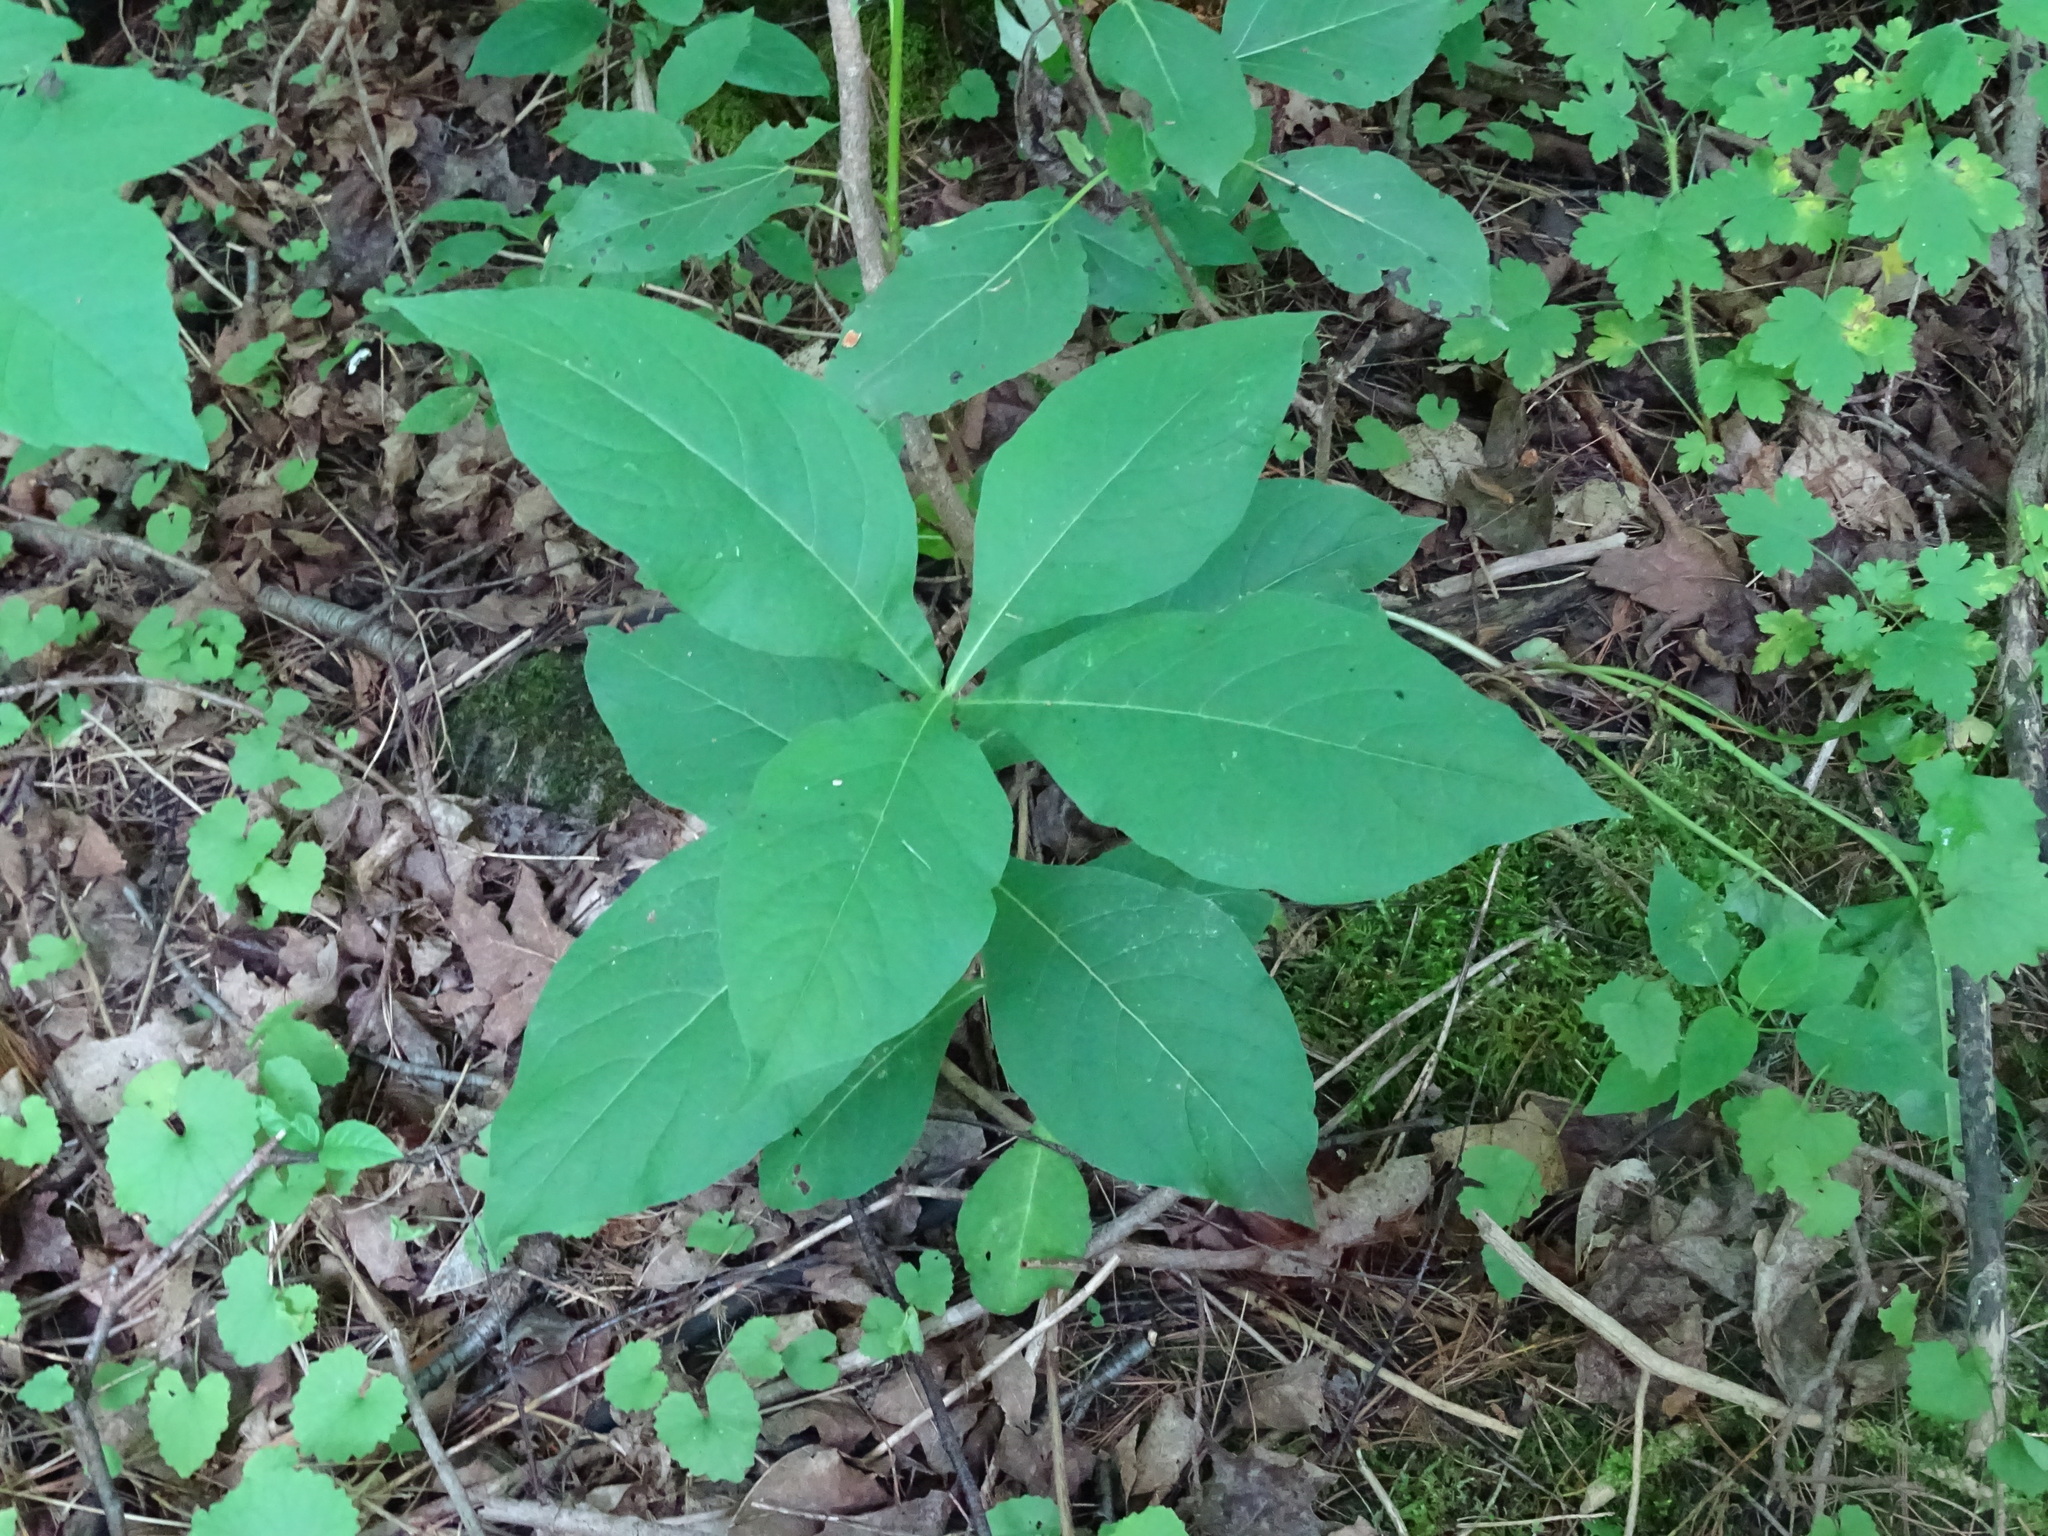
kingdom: Plantae
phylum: Tracheophyta
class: Magnoliopsida
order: Dipsacales
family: Caprifoliaceae
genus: Triosteum
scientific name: Triosteum aurantiacum
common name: Coffee tinker's-weed
